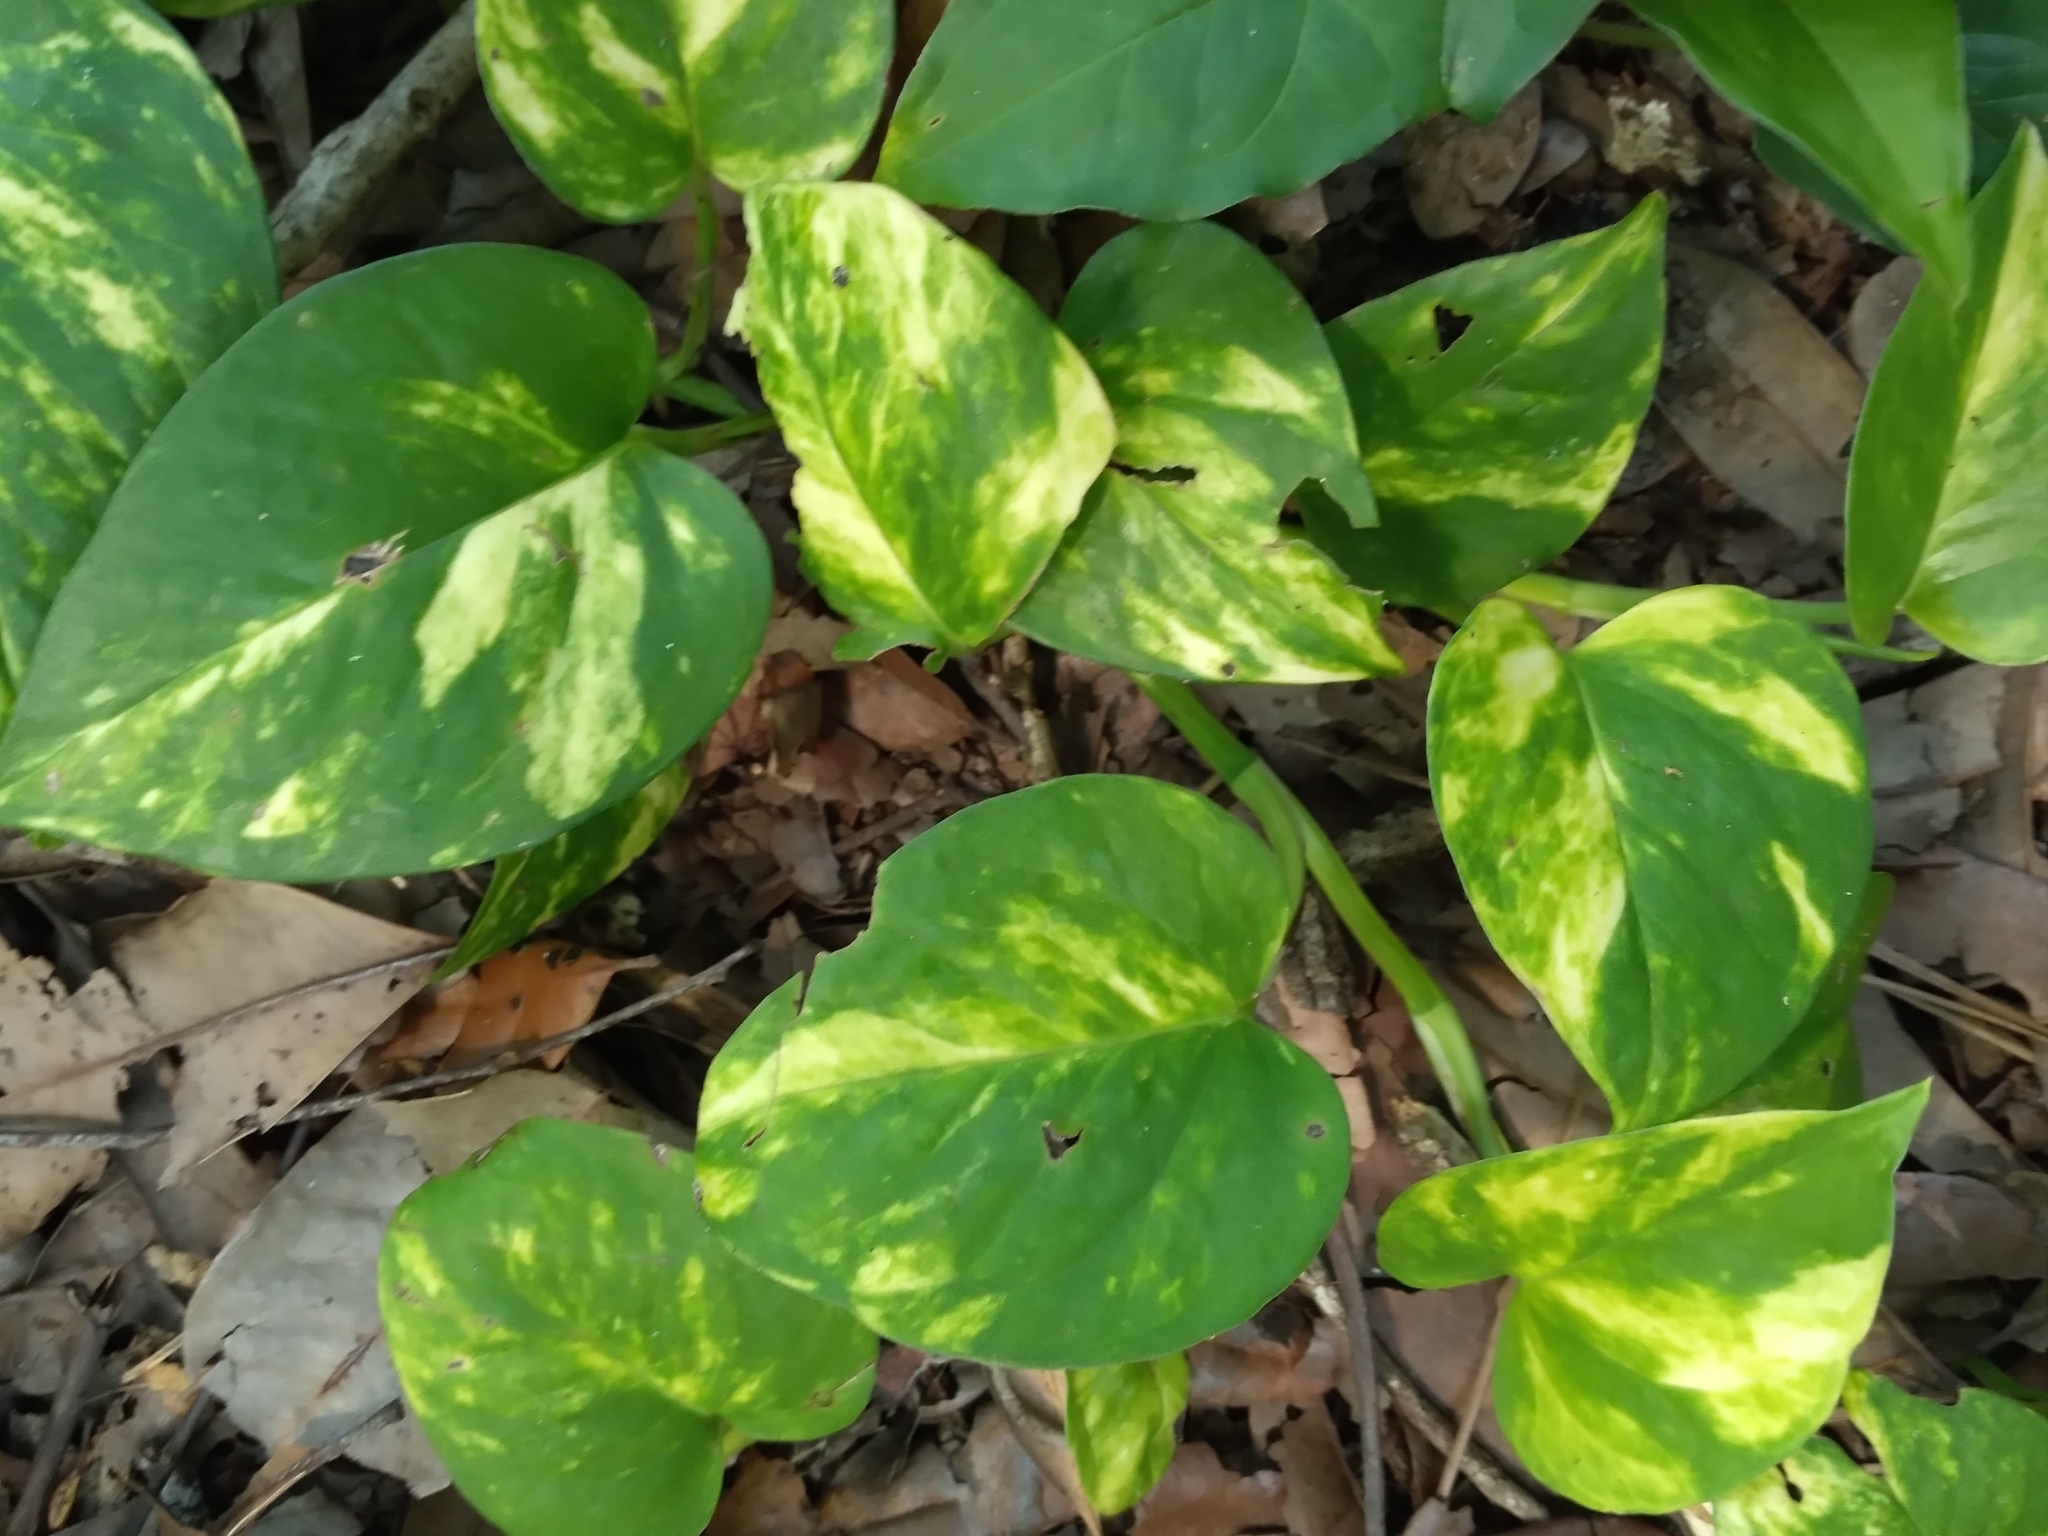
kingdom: Plantae
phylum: Tracheophyta
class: Liliopsida
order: Alismatales
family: Araceae
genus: Epipremnum
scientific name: Epipremnum aureum
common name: Golden hunter's-robe
